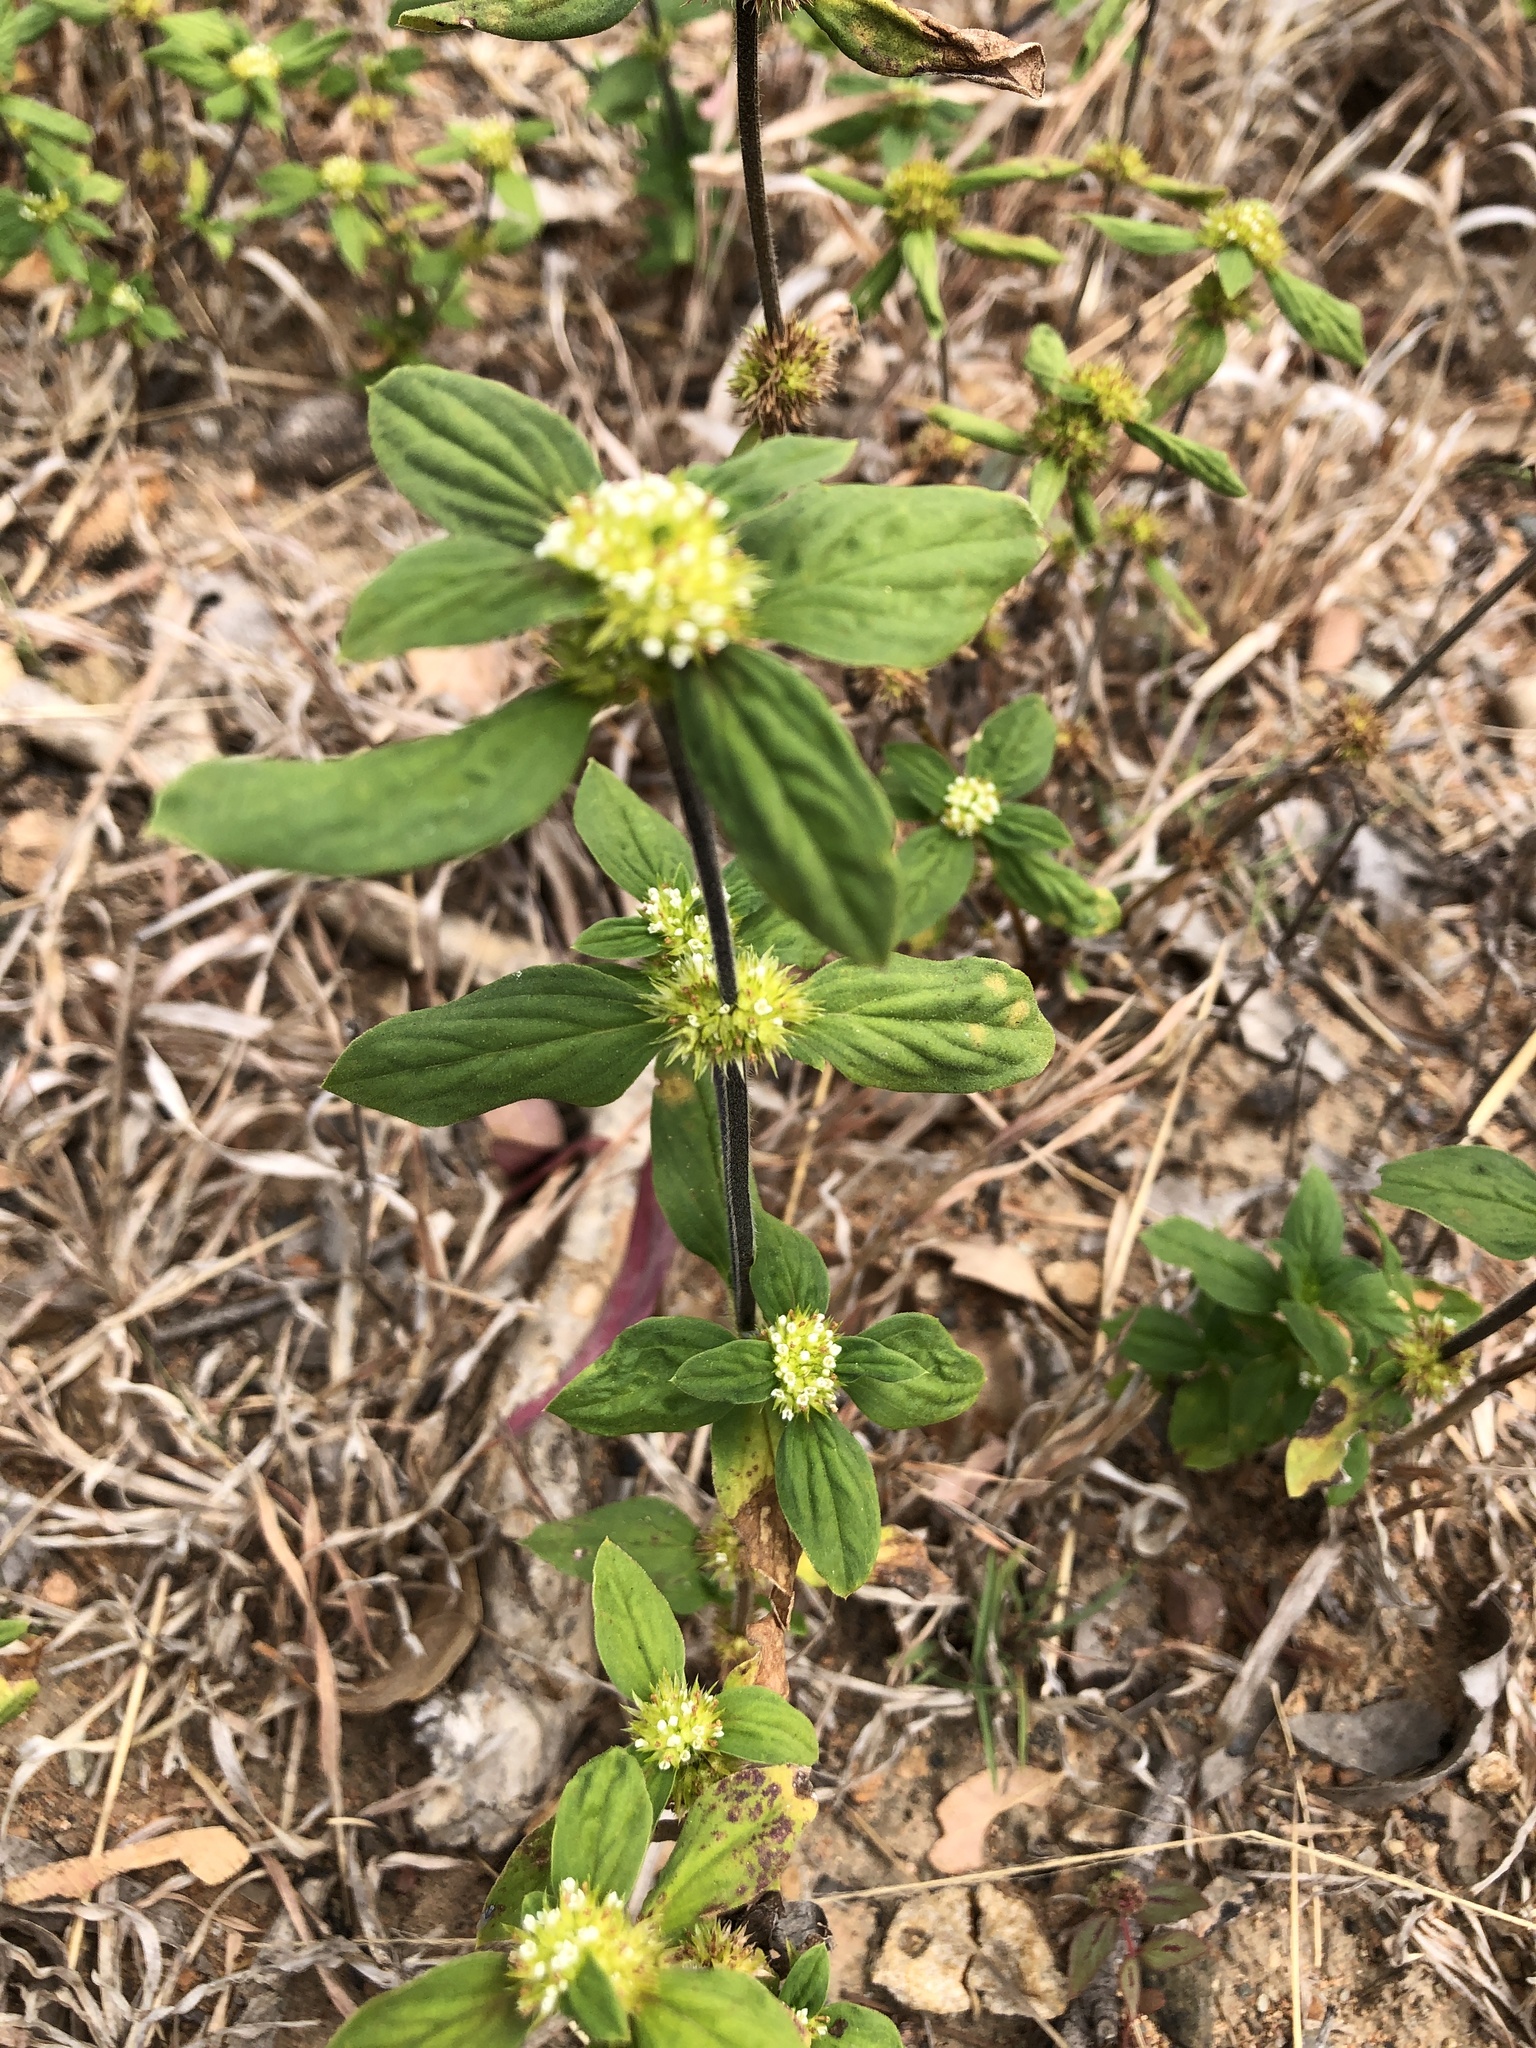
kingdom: Plantae
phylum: Tracheophyta
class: Magnoliopsida
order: Gentianales
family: Rubiaceae
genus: Mitracarpus
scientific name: Mitracarpus hirtus
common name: Tropical girdlepod
